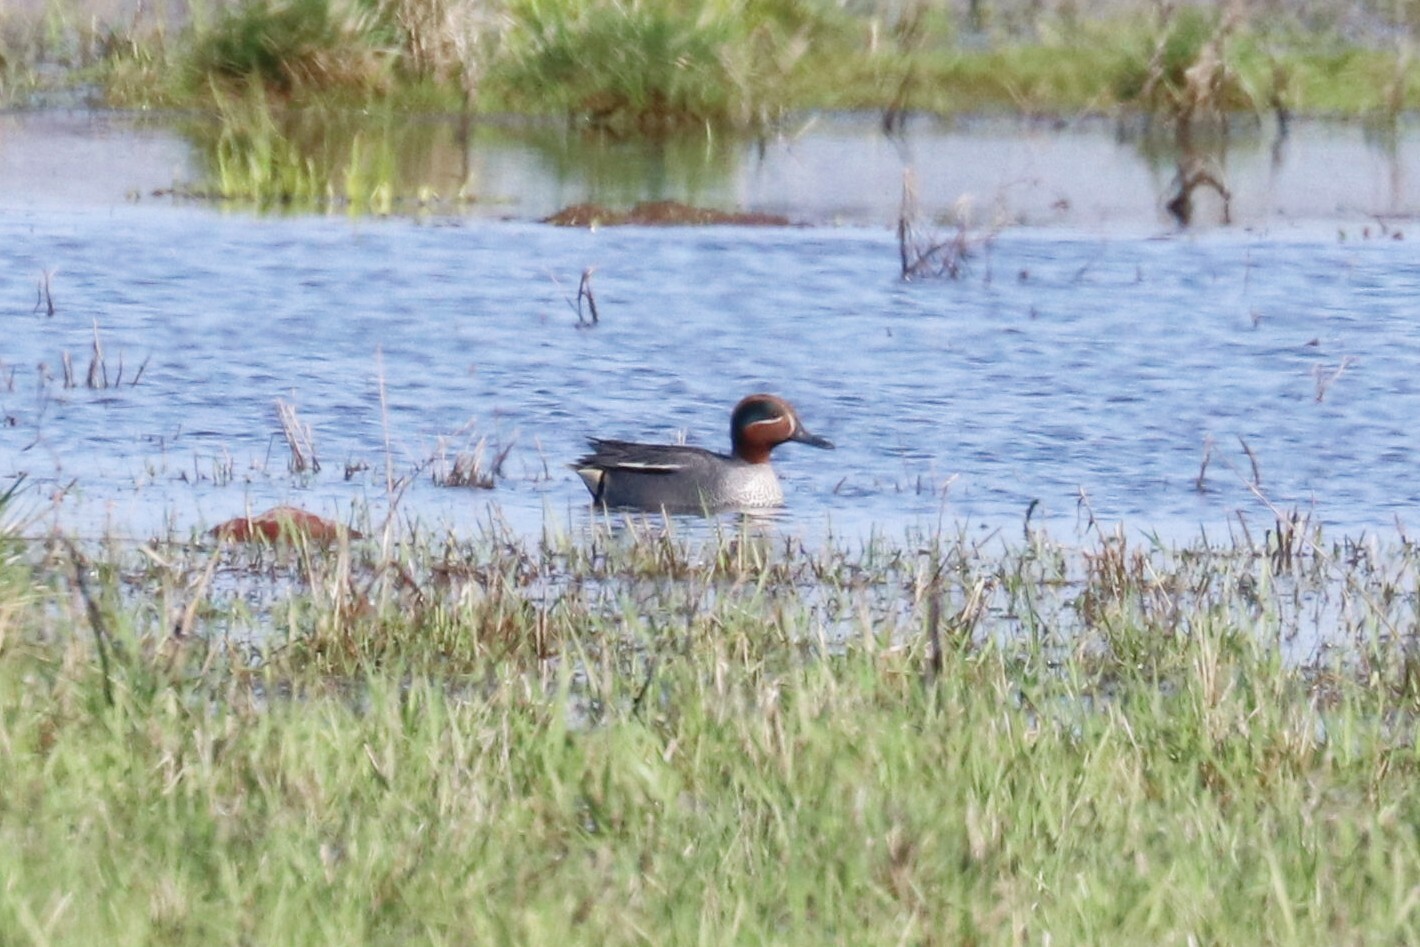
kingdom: Animalia
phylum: Chordata
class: Aves
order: Anseriformes
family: Anatidae
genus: Anas
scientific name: Anas crecca
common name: Eurasian teal
